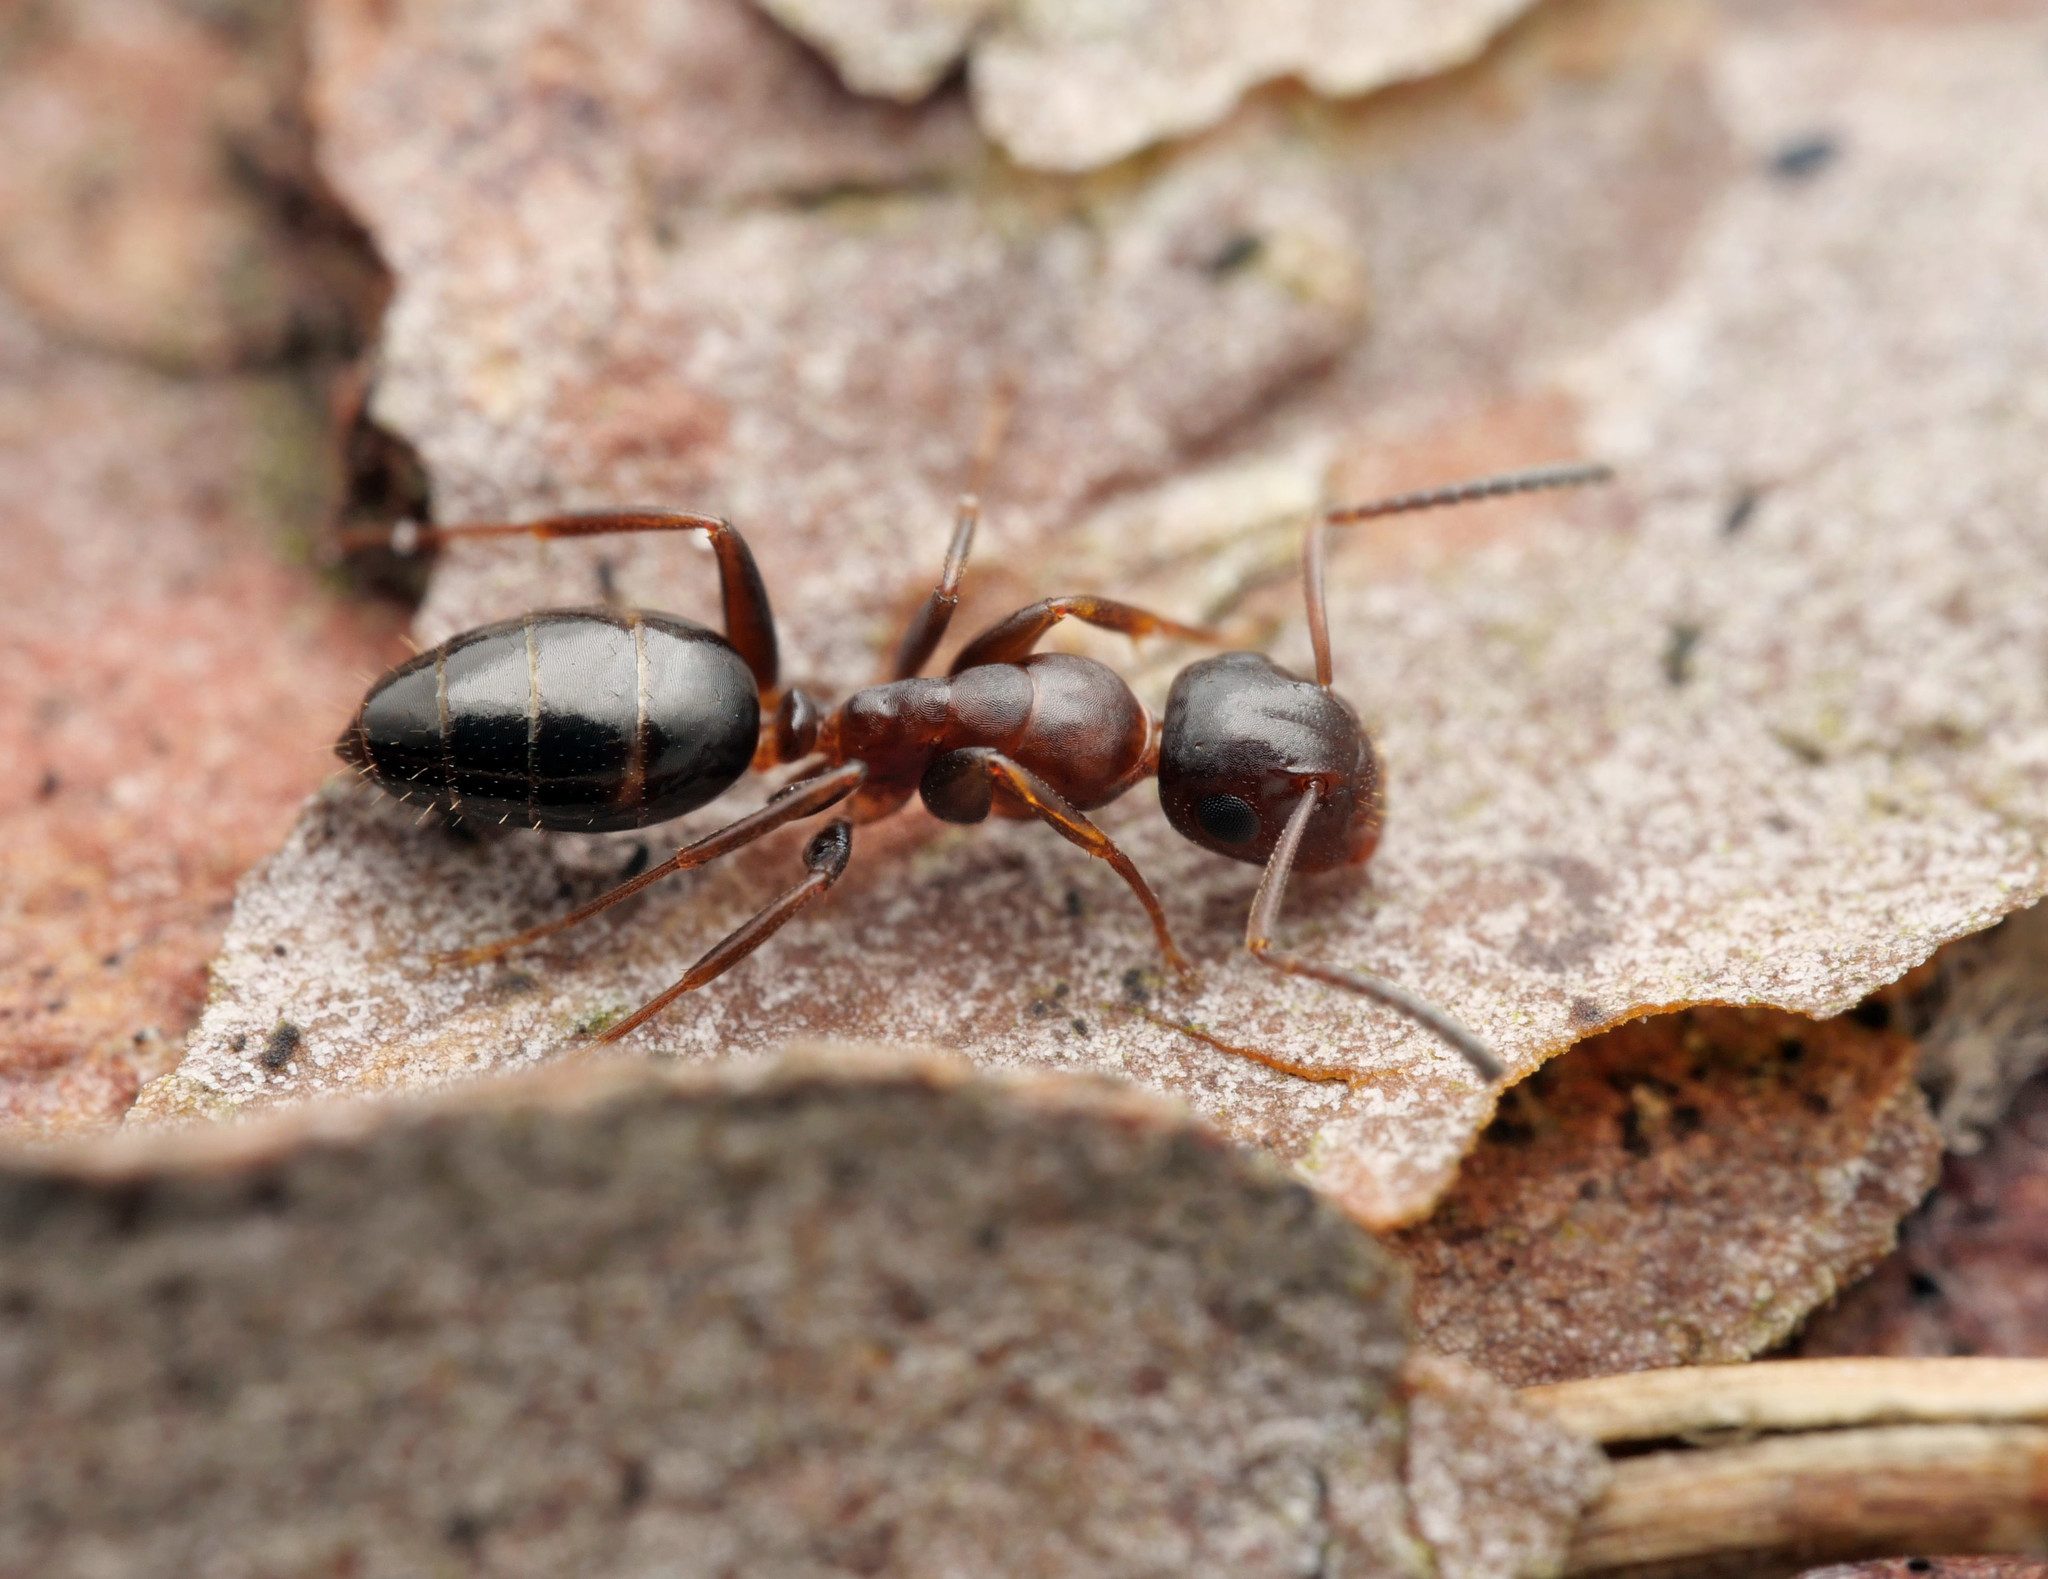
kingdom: Animalia
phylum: Arthropoda
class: Insecta
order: Hymenoptera
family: Formicidae
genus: Camponotus
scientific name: Camponotus truncatus
